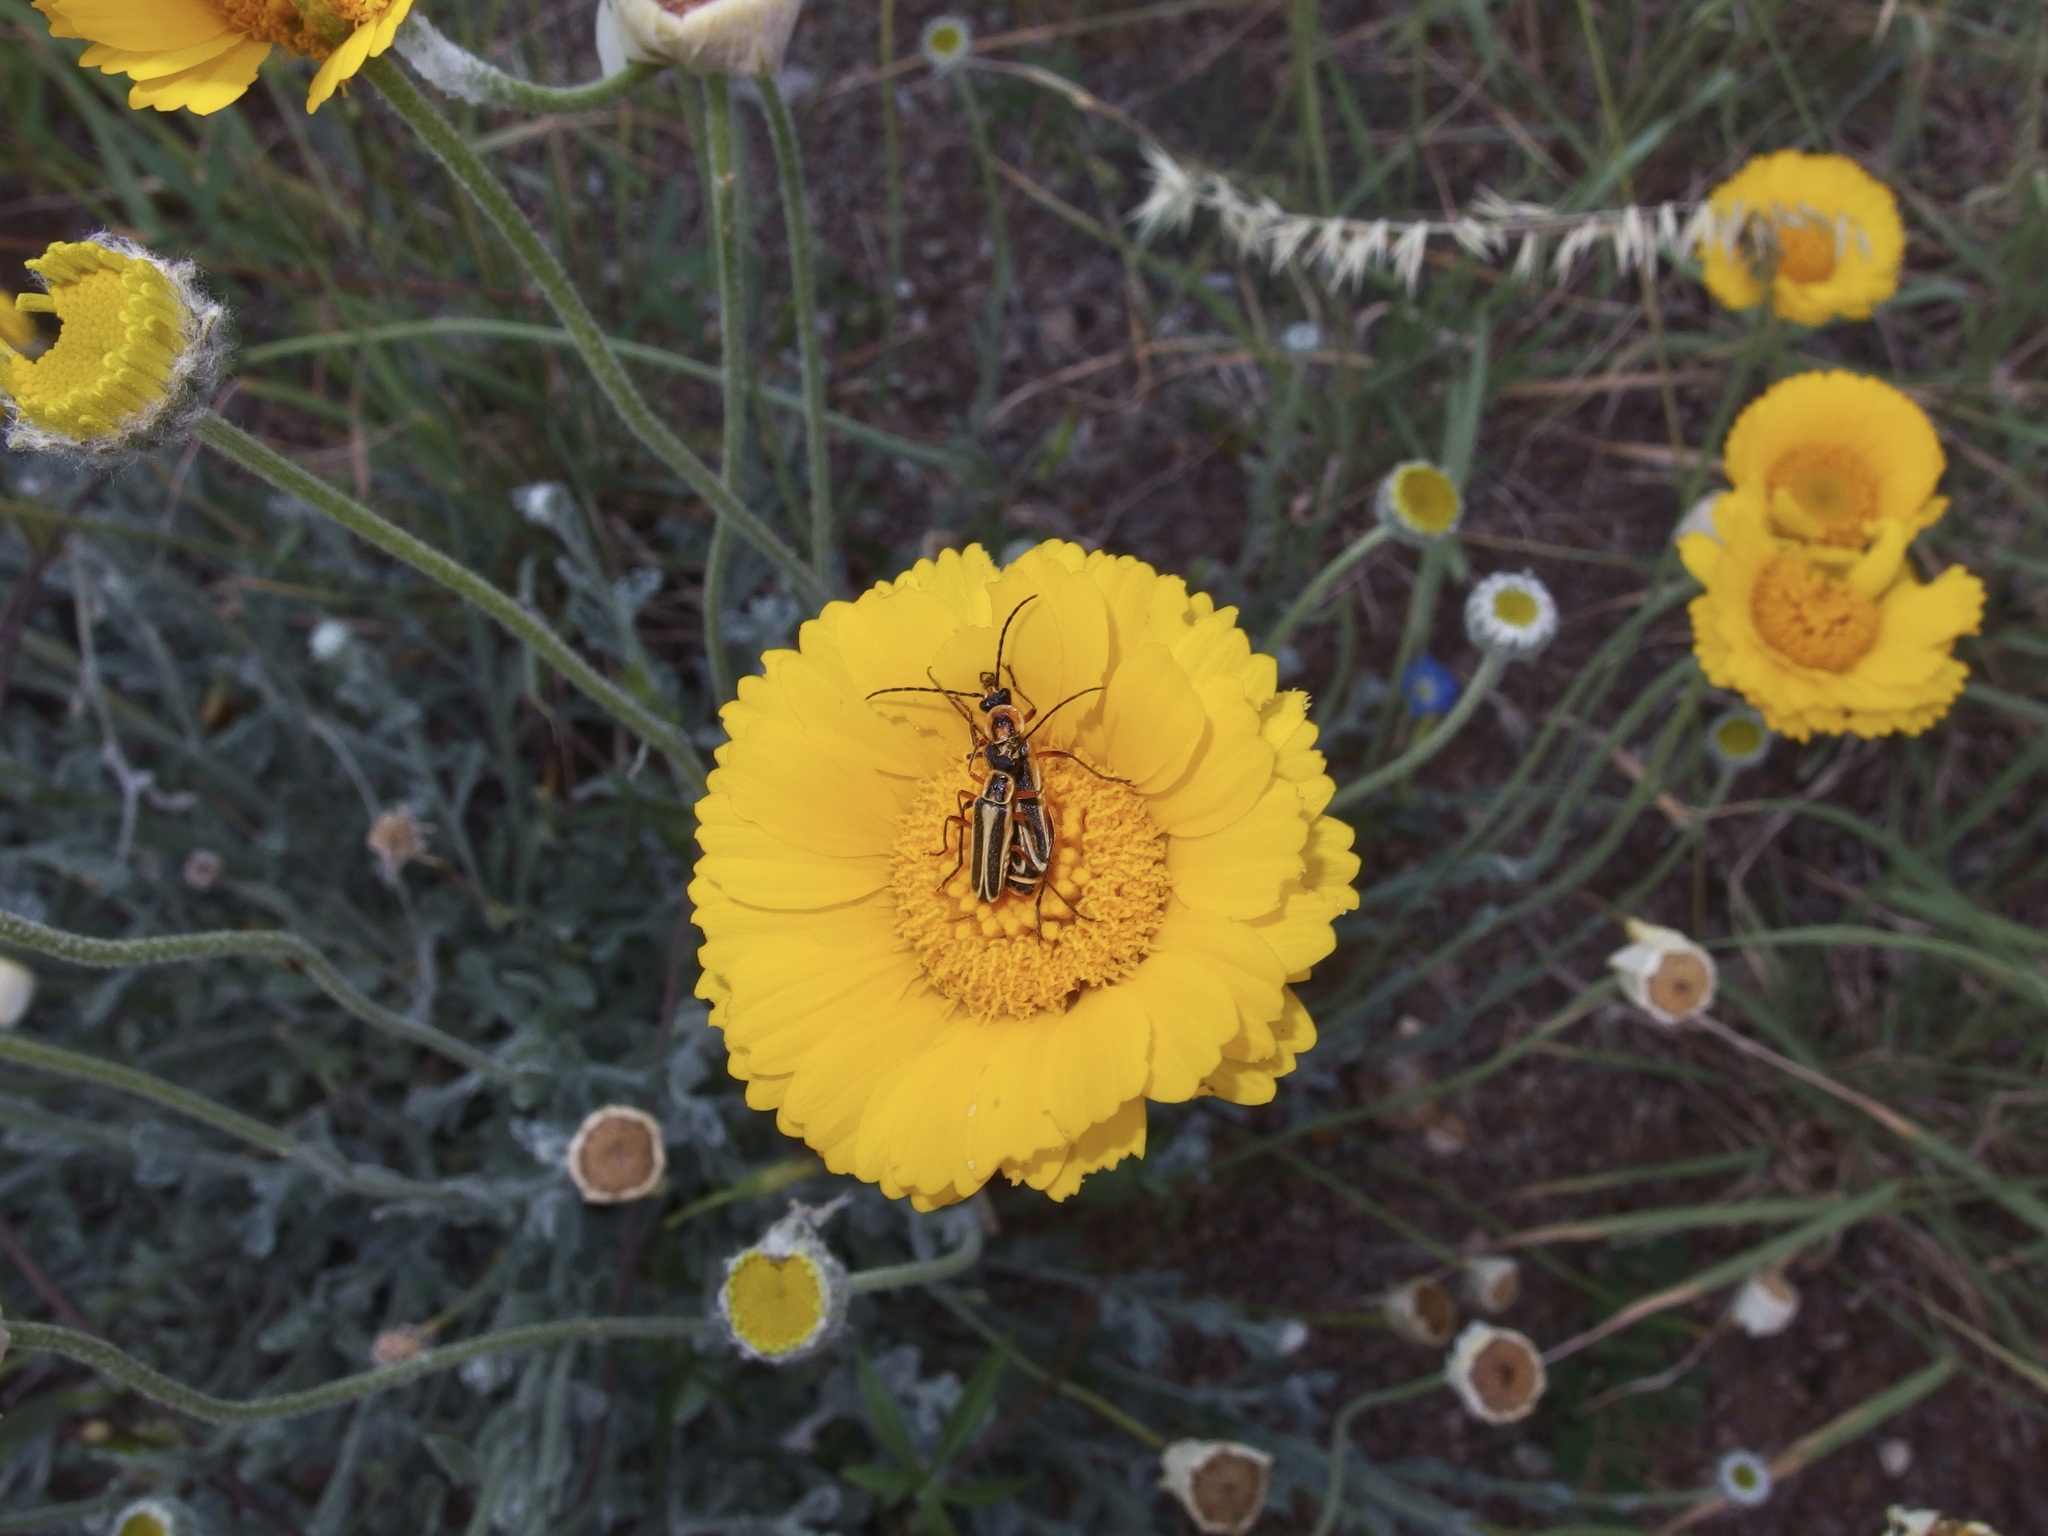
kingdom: Plantae
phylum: Tracheophyta
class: Magnoliopsida
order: Asterales
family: Asteraceae
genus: Baileya
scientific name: Baileya multiradiata
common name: Desert-marigold
